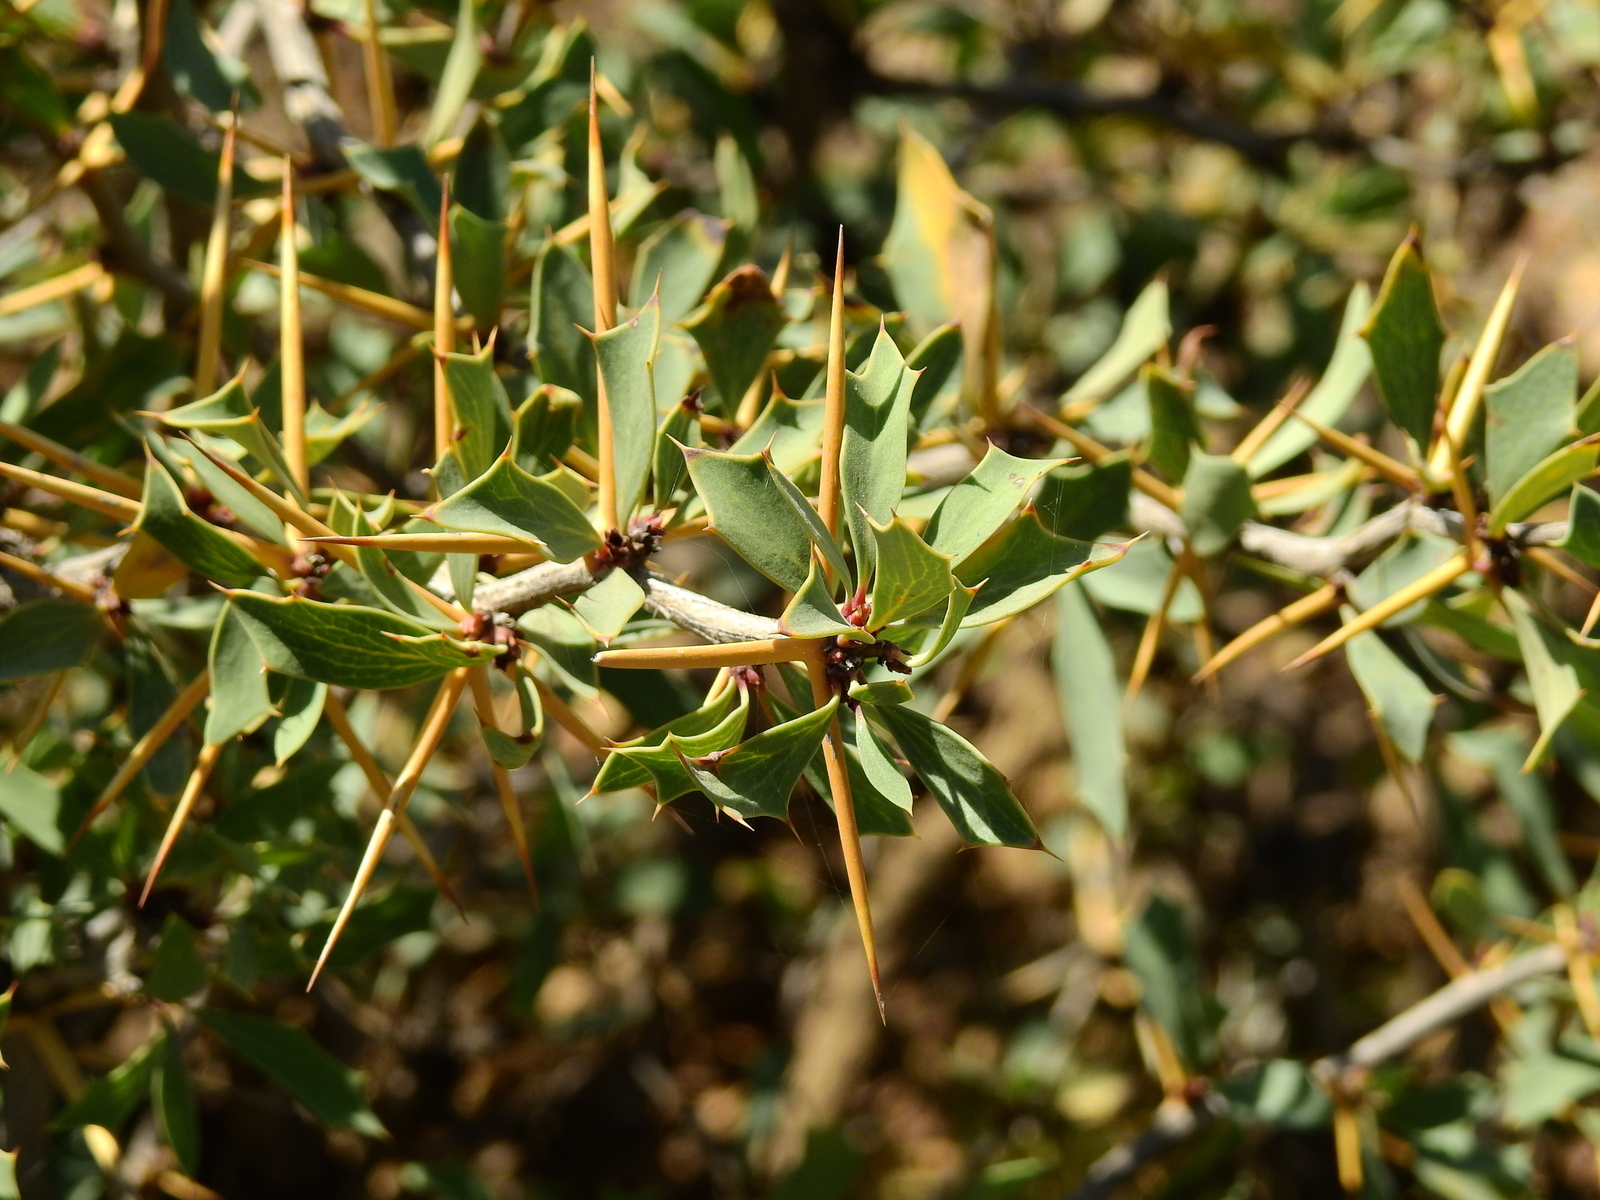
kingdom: Plantae
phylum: Tracheophyta
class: Magnoliopsida
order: Ranunculales
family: Berberidaceae
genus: Berberis
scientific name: Berberis grevilleana
